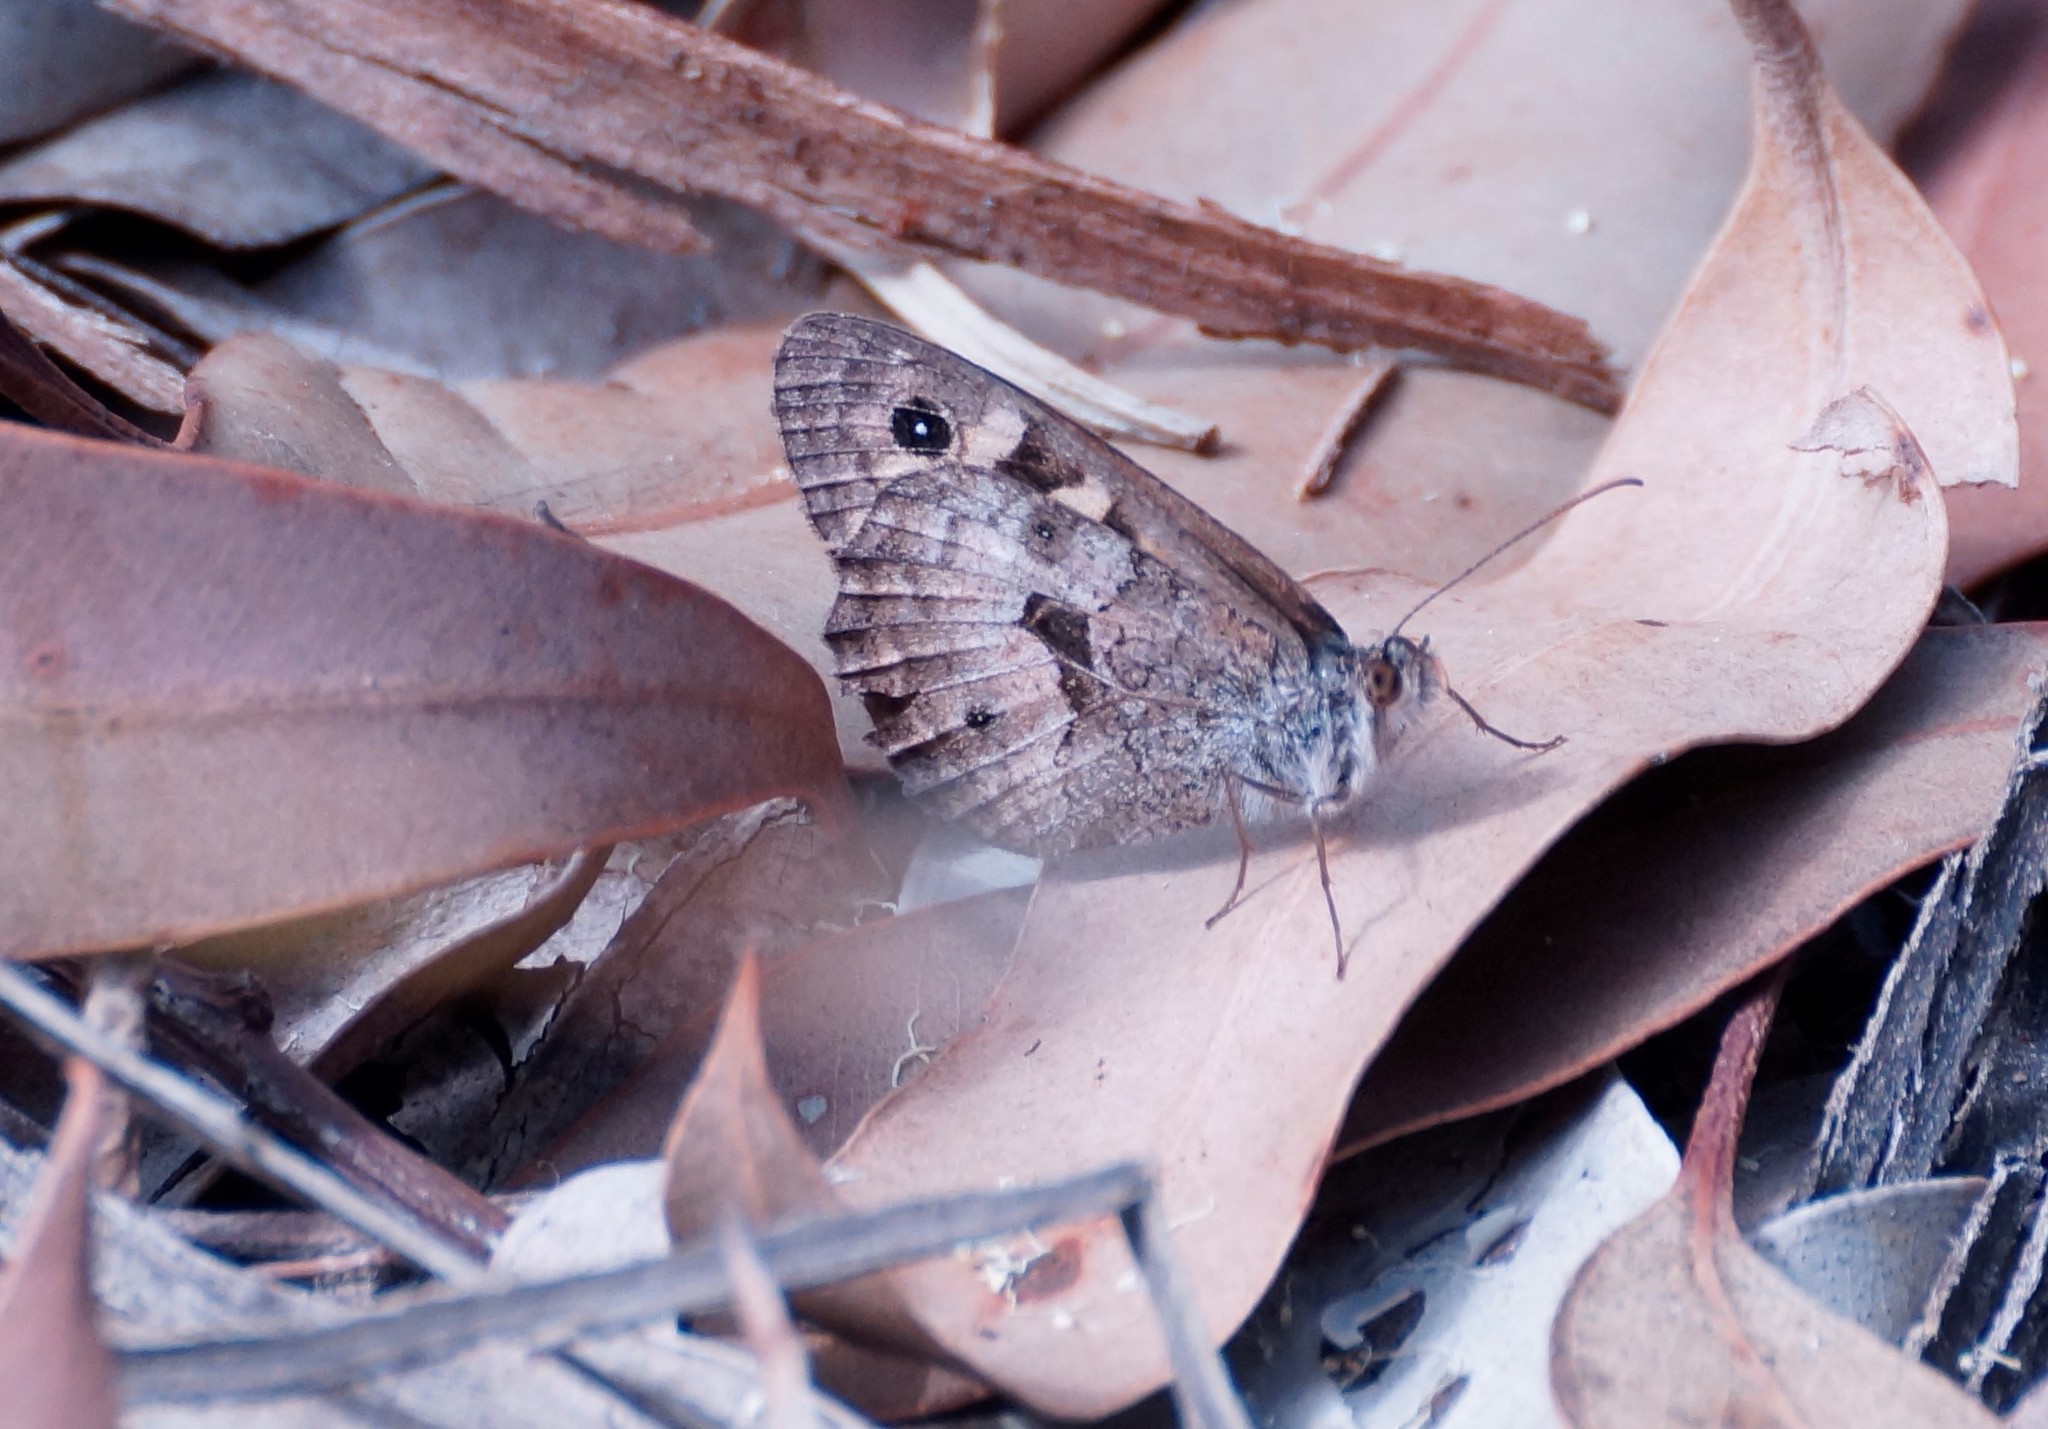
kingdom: Animalia
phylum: Arthropoda
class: Insecta
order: Lepidoptera
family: Nymphalidae
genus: Geitoneura
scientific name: Geitoneura klugii
